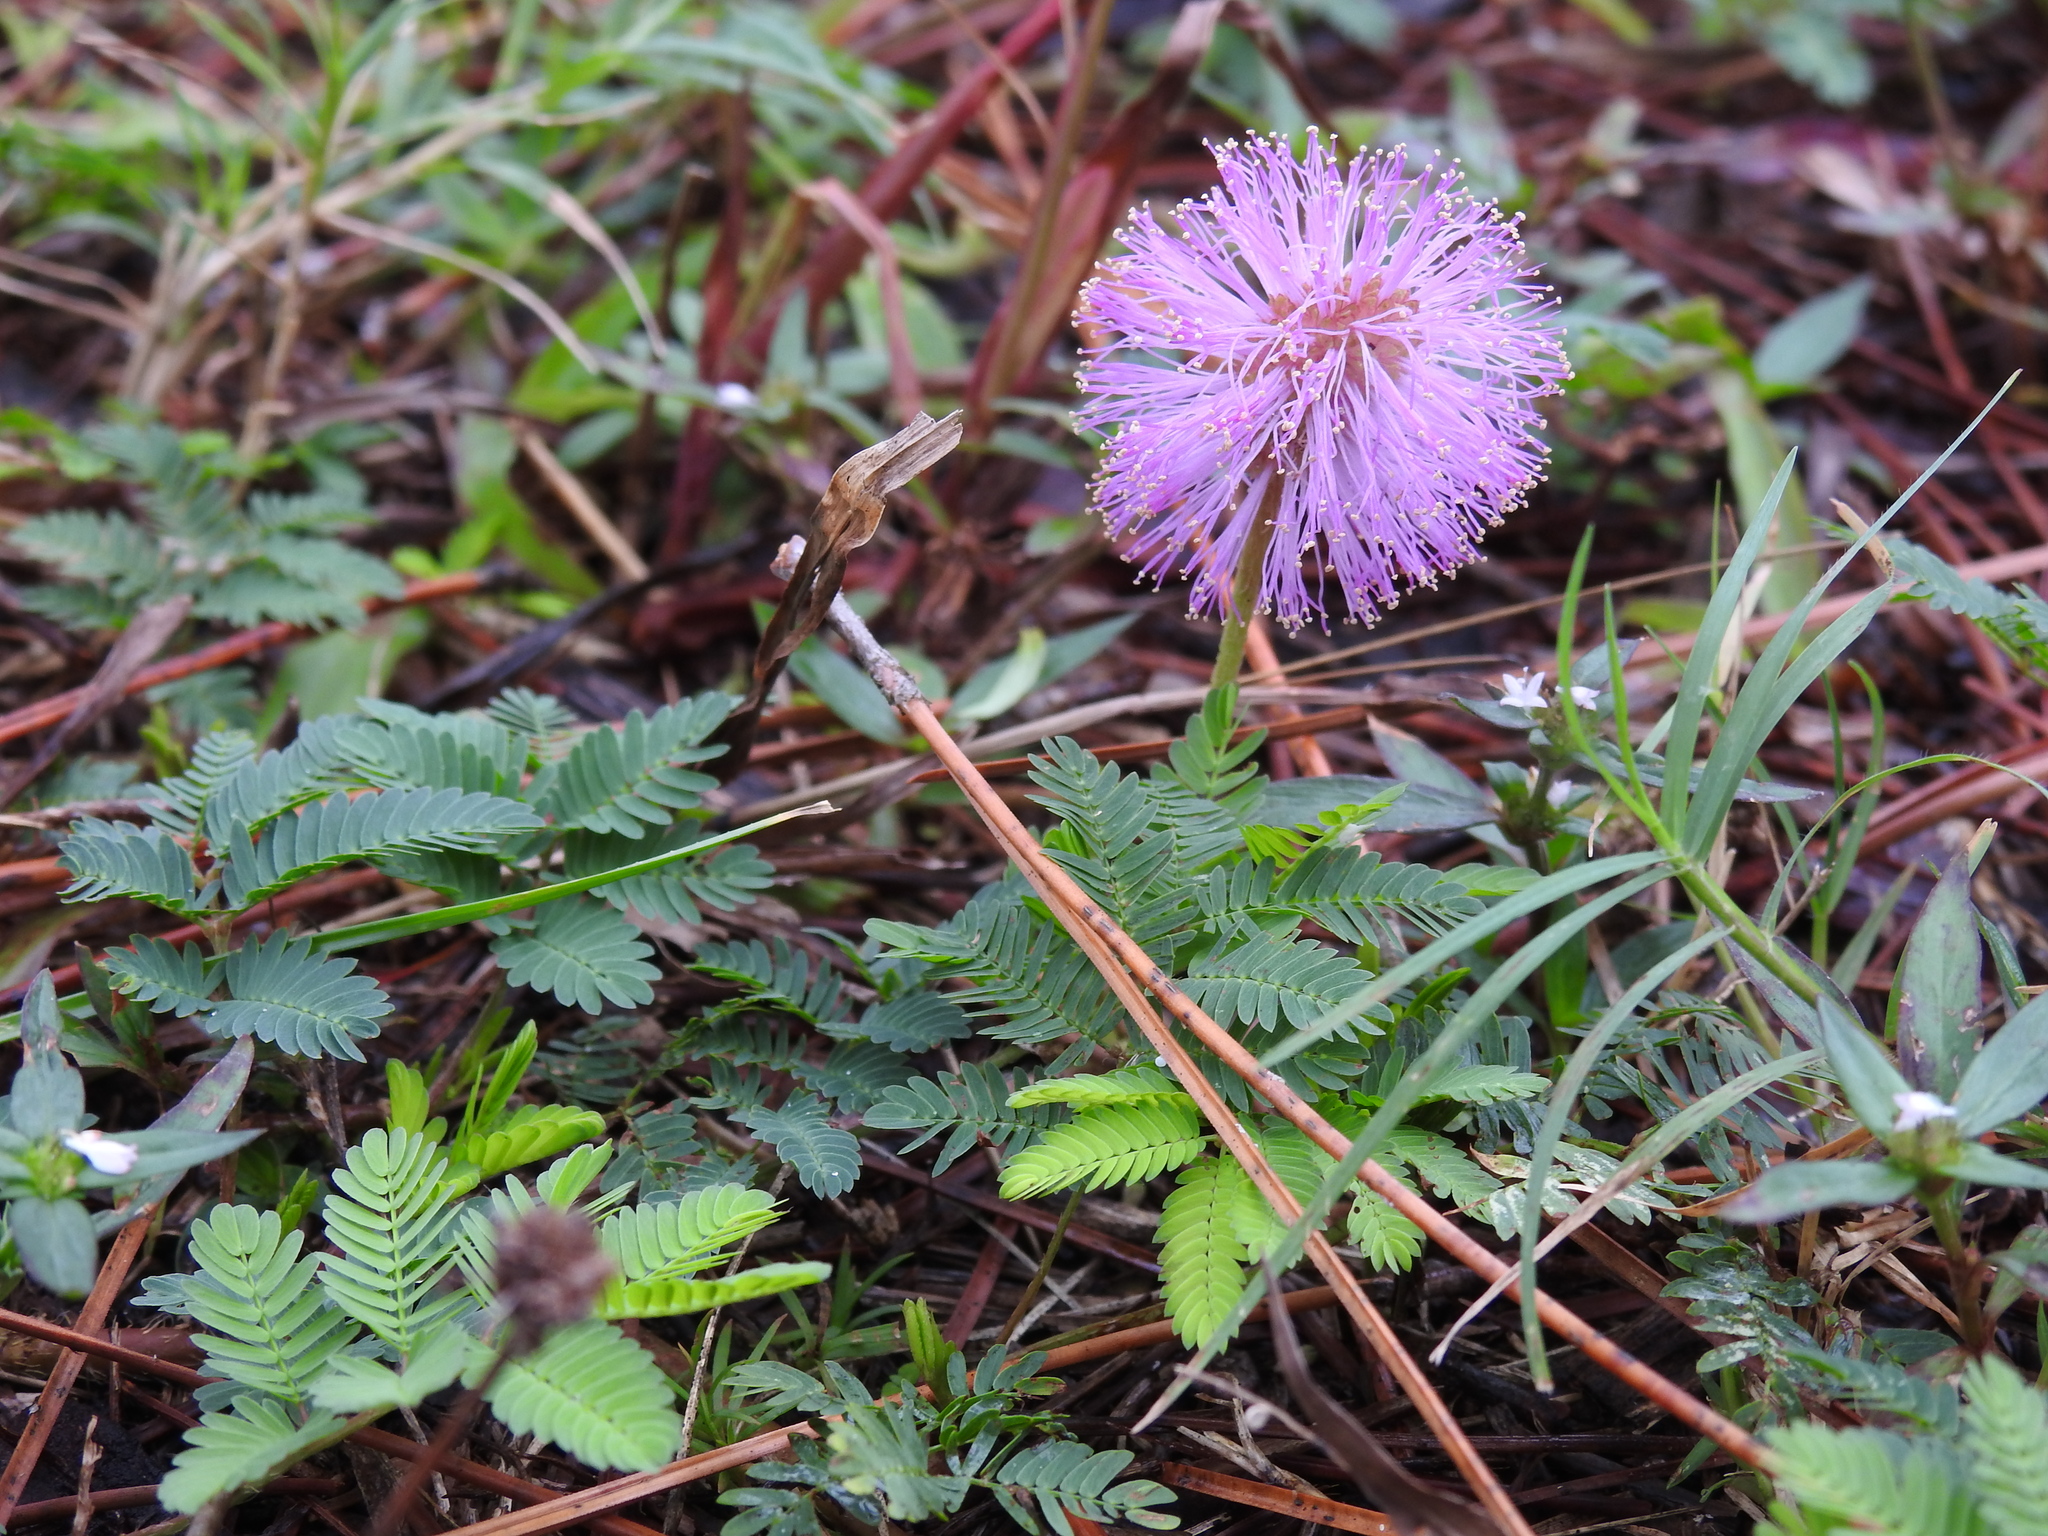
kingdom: Plantae
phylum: Tracheophyta
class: Magnoliopsida
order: Fabales
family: Fabaceae
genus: Mimosa
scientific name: Mimosa strigillosa
